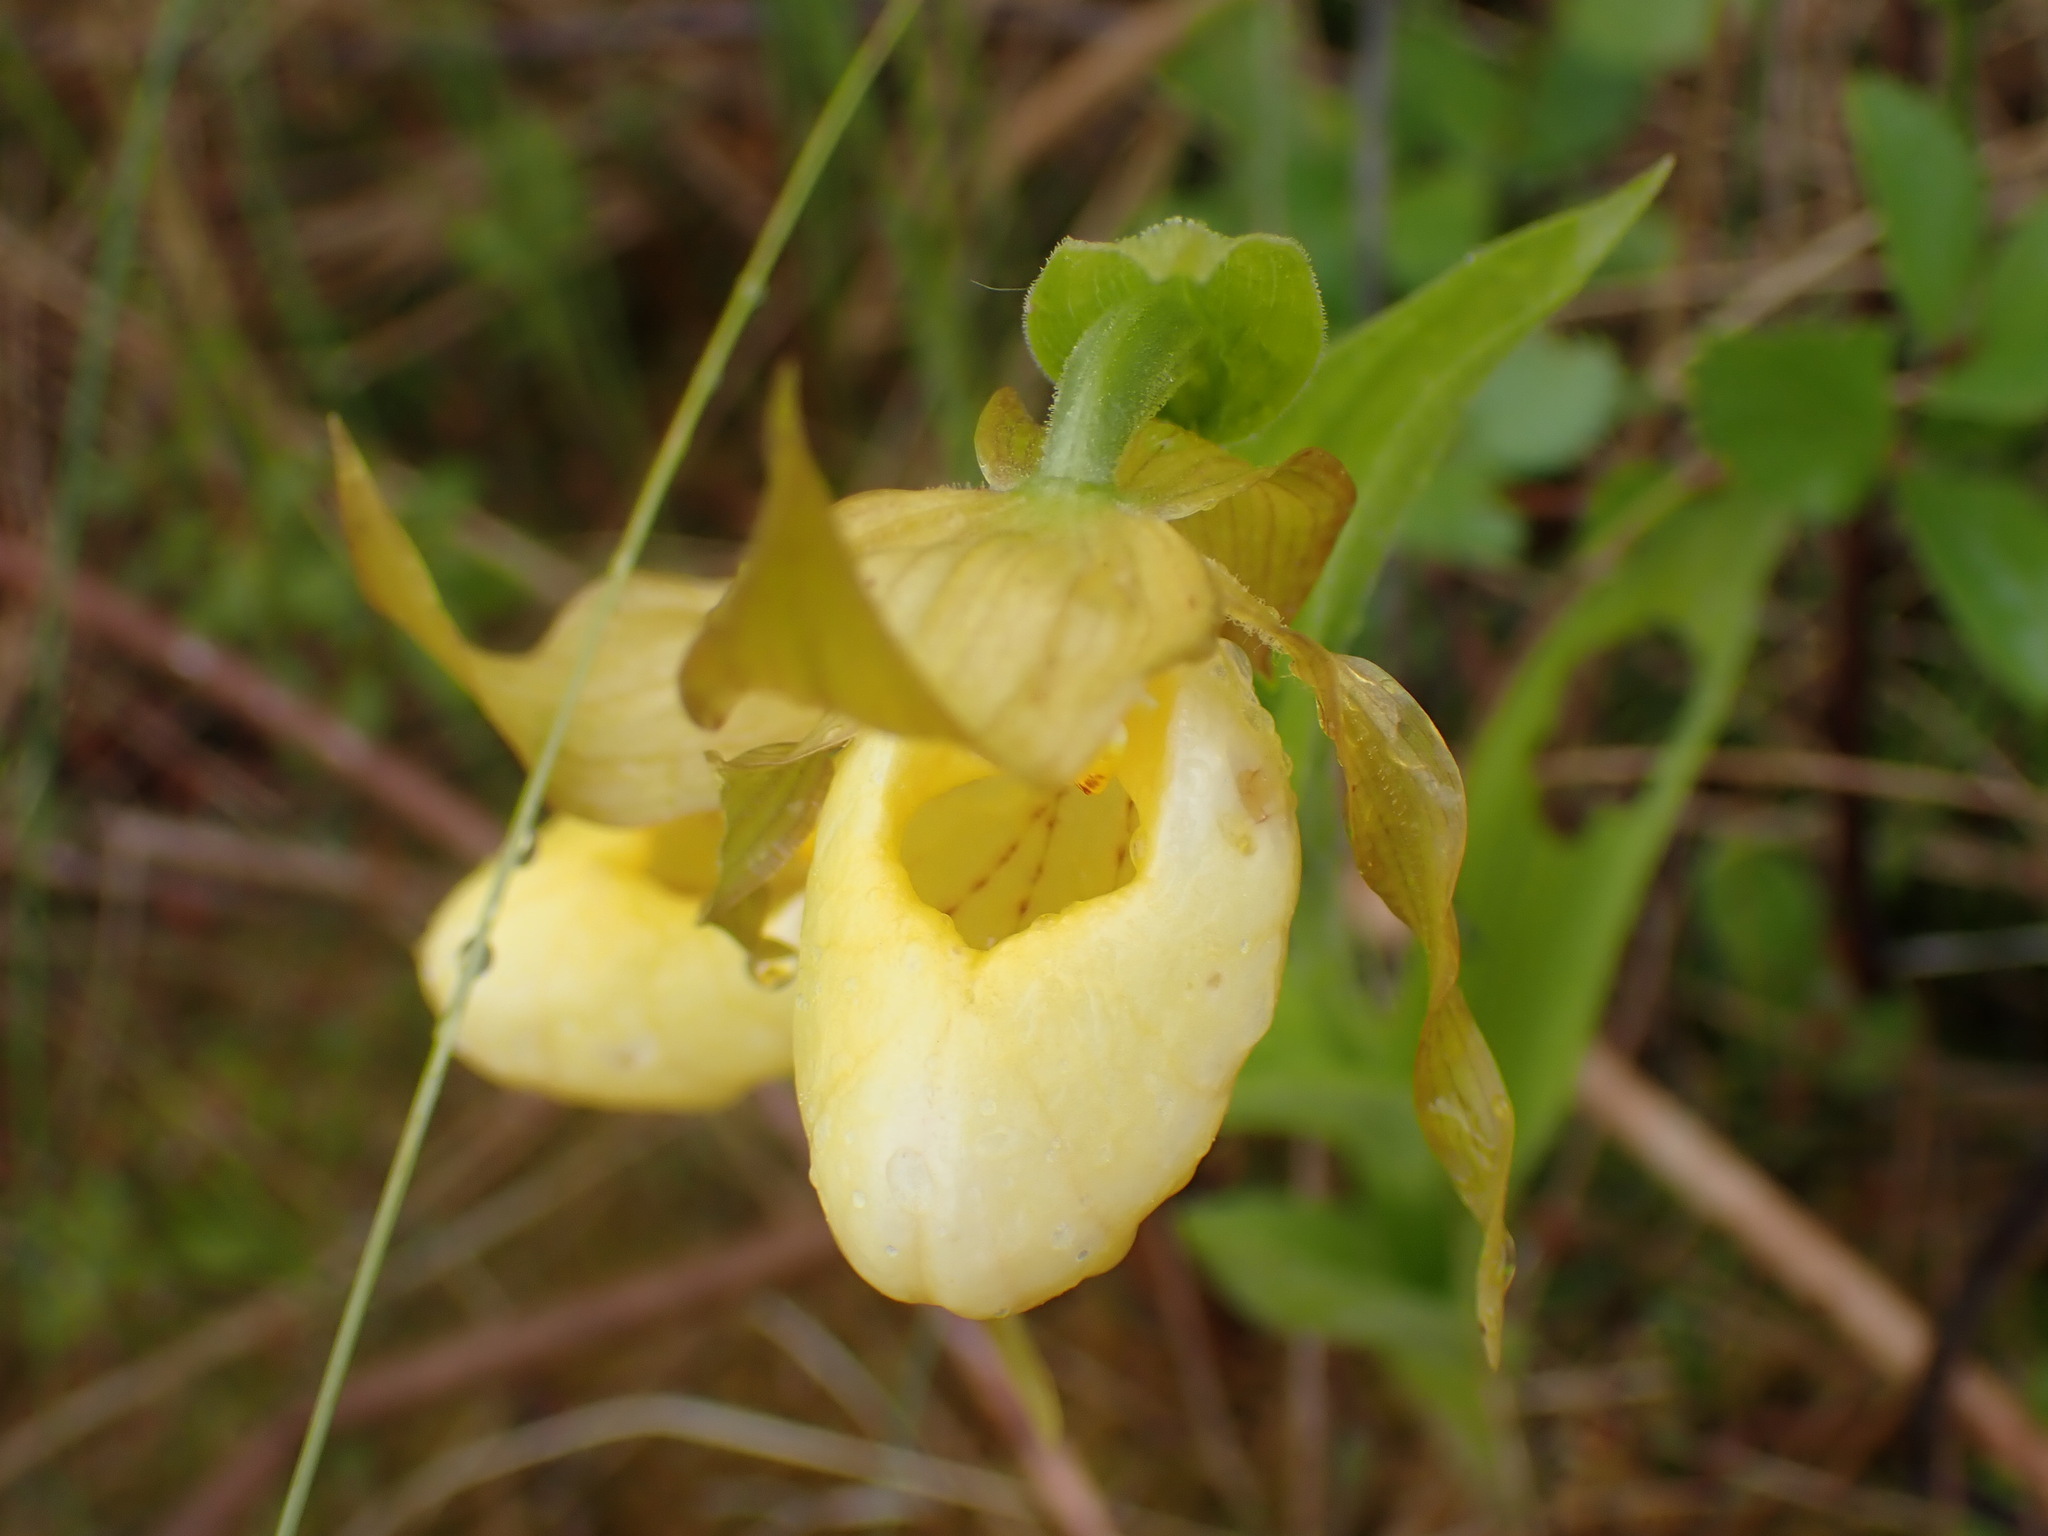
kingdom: Plantae
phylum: Tracheophyta
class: Liliopsida
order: Asparagales
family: Orchidaceae
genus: Cypripedium
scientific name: Cypripedium parviflorum
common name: American yellow lady's-slipper
